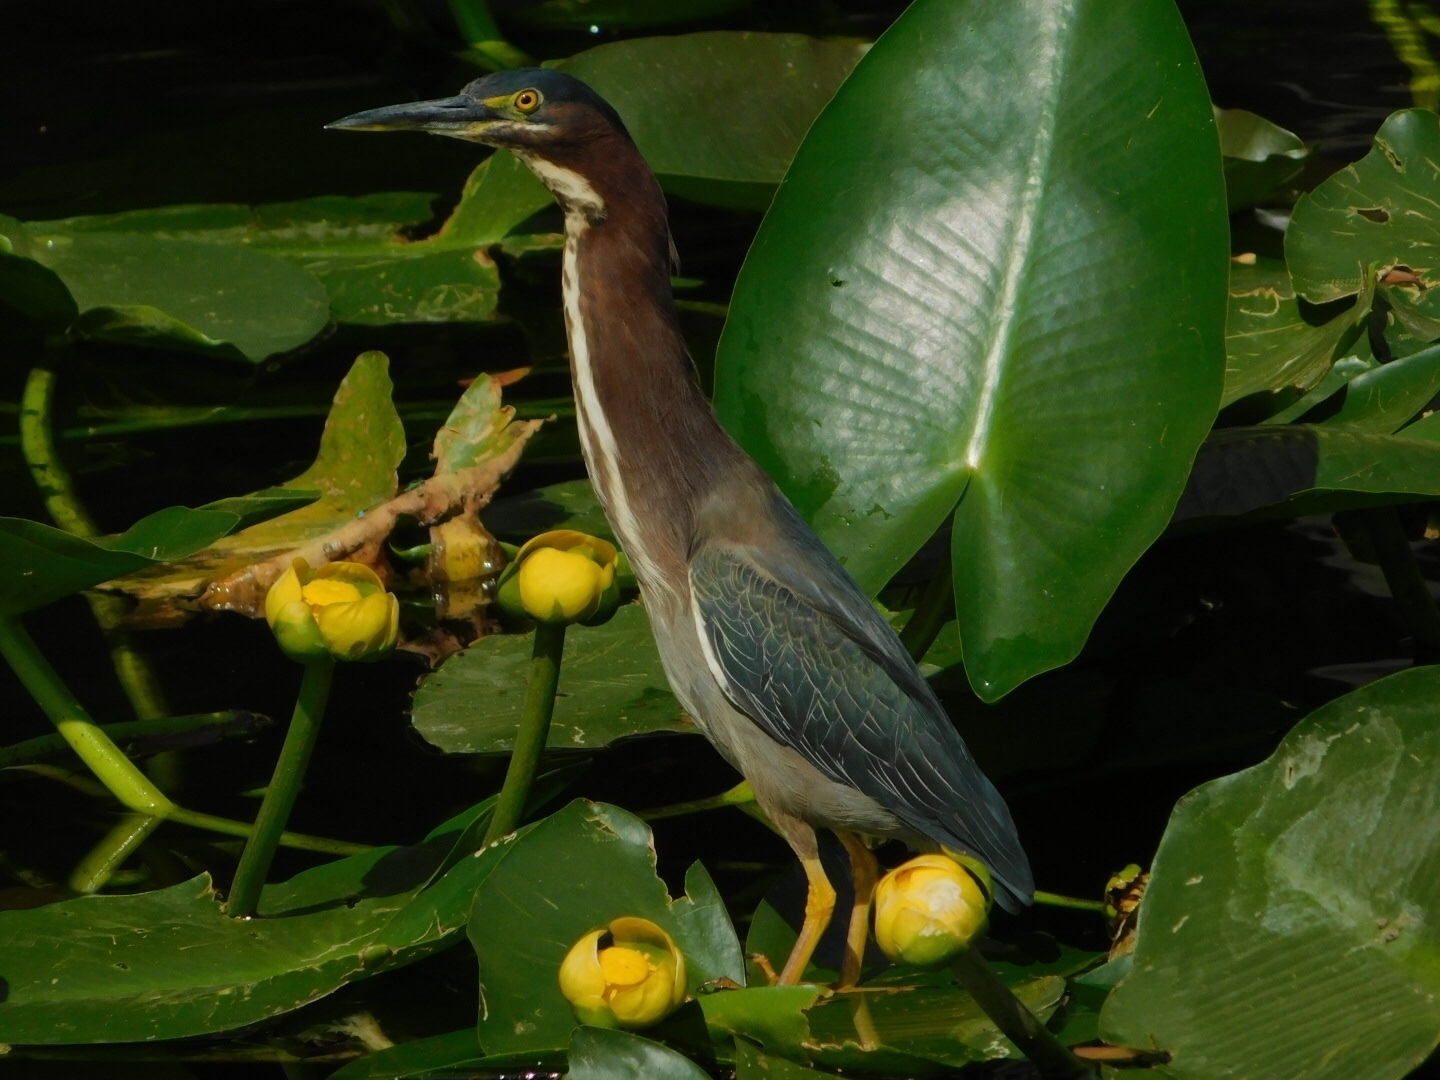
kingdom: Animalia
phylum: Chordata
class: Aves
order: Pelecaniformes
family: Ardeidae
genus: Butorides
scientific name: Butorides virescens
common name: Green heron
